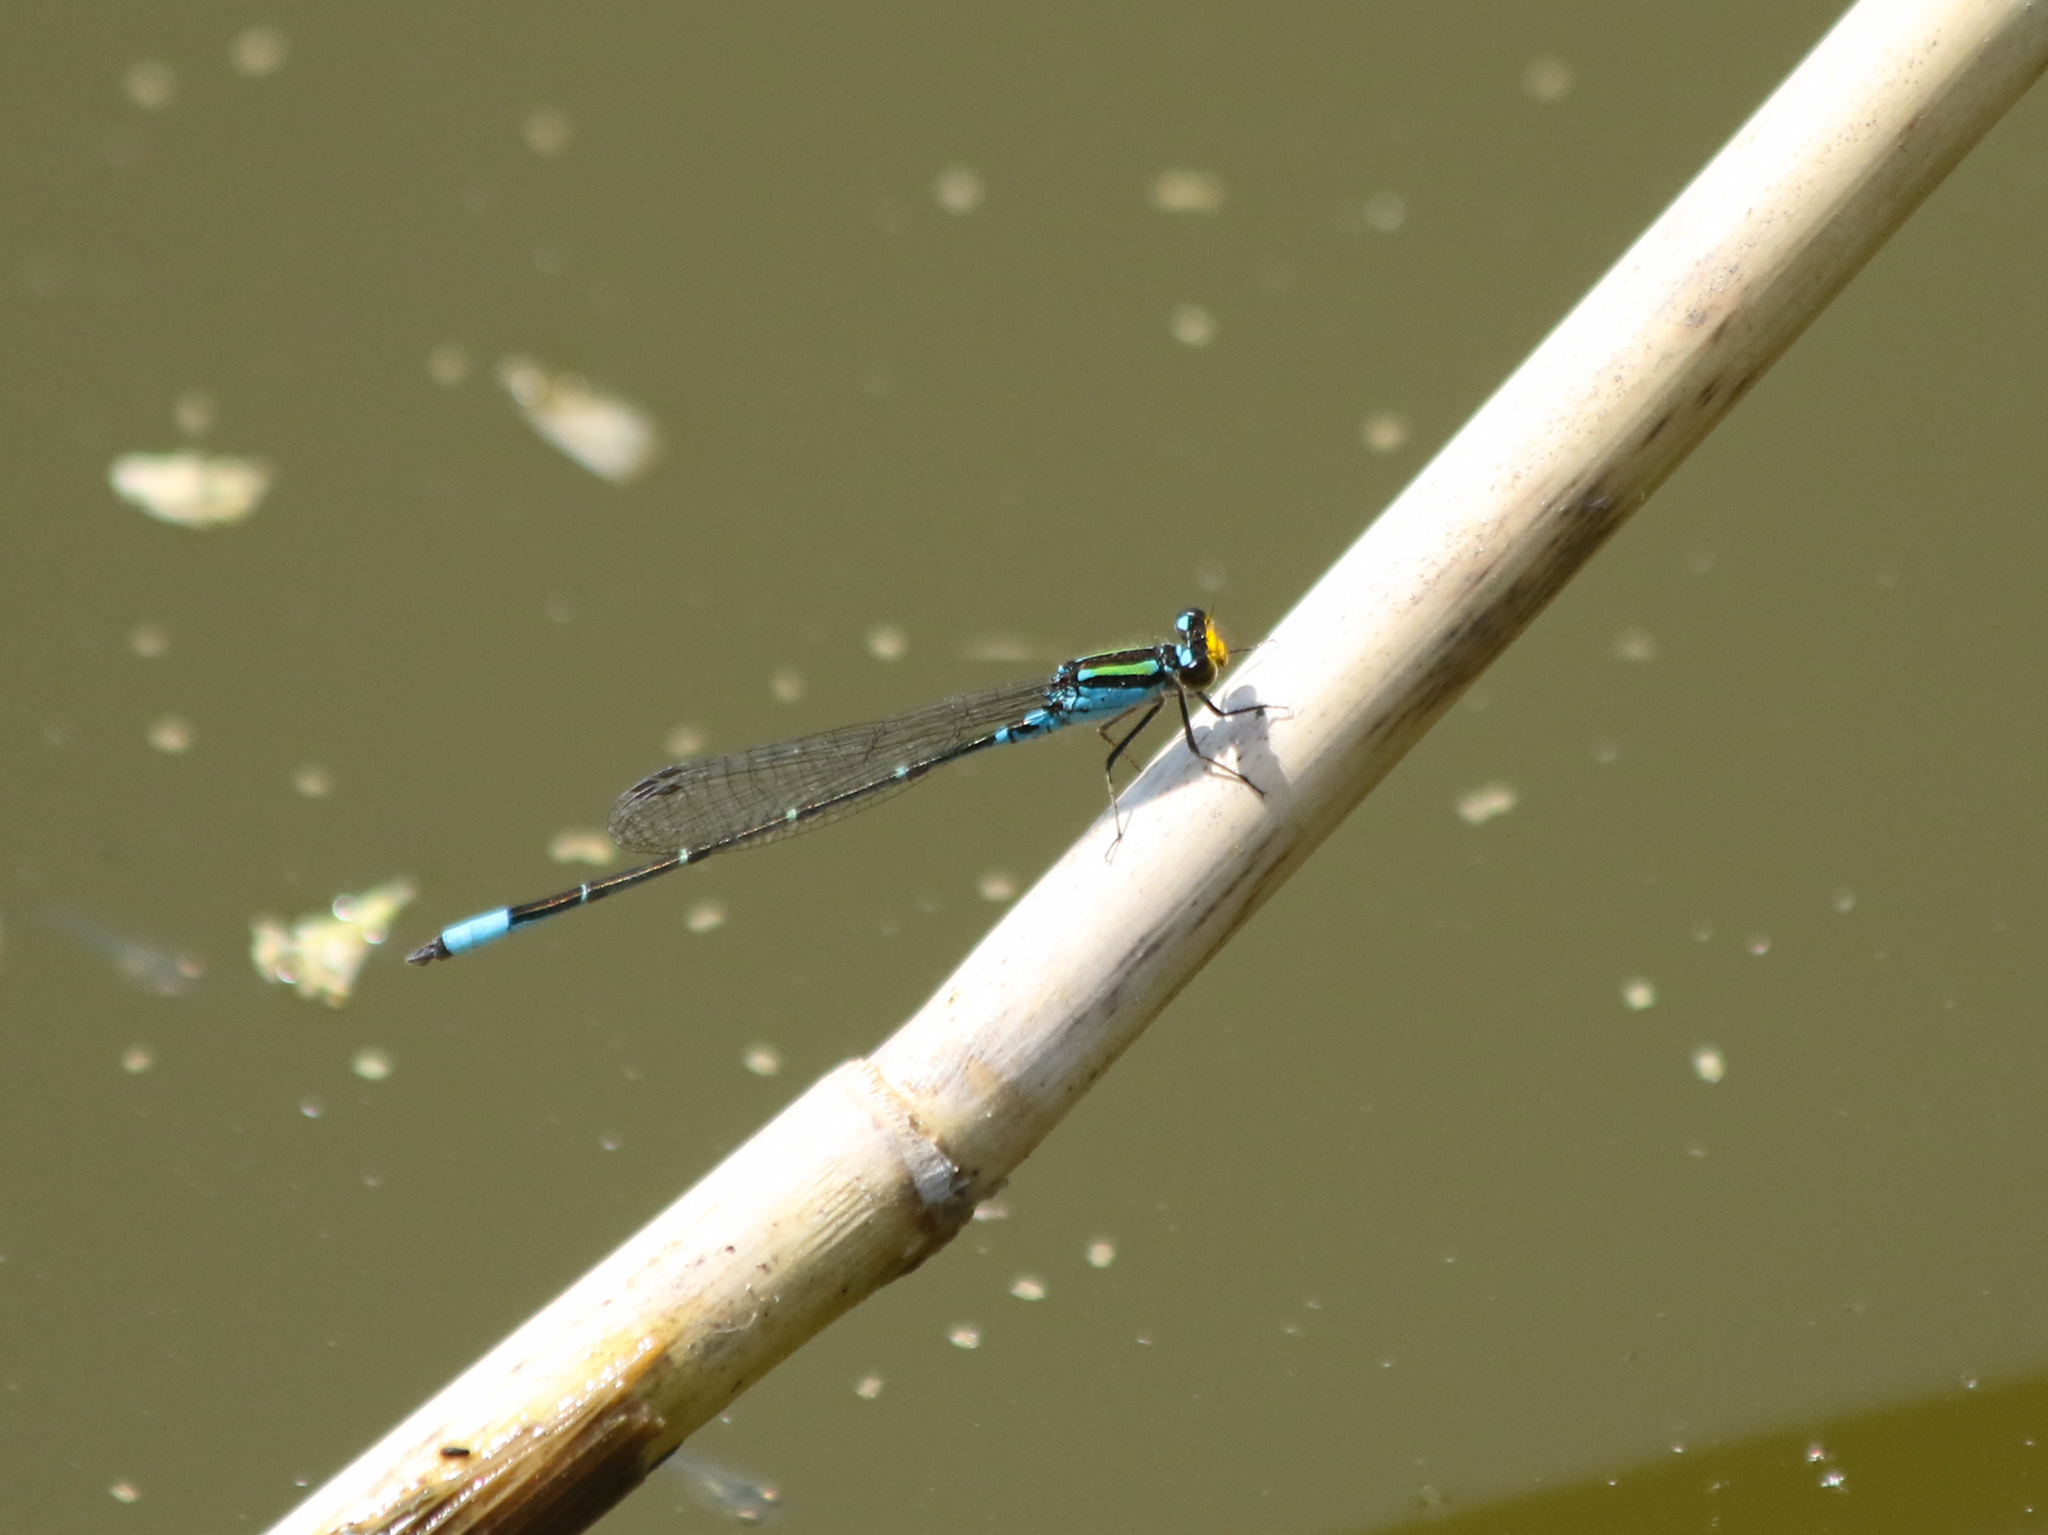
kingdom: Animalia
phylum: Arthropoda
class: Insecta
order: Odonata
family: Coenagrionidae
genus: Neoerythromma
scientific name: Neoerythromma cultellatum
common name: Caribbean yellowface
